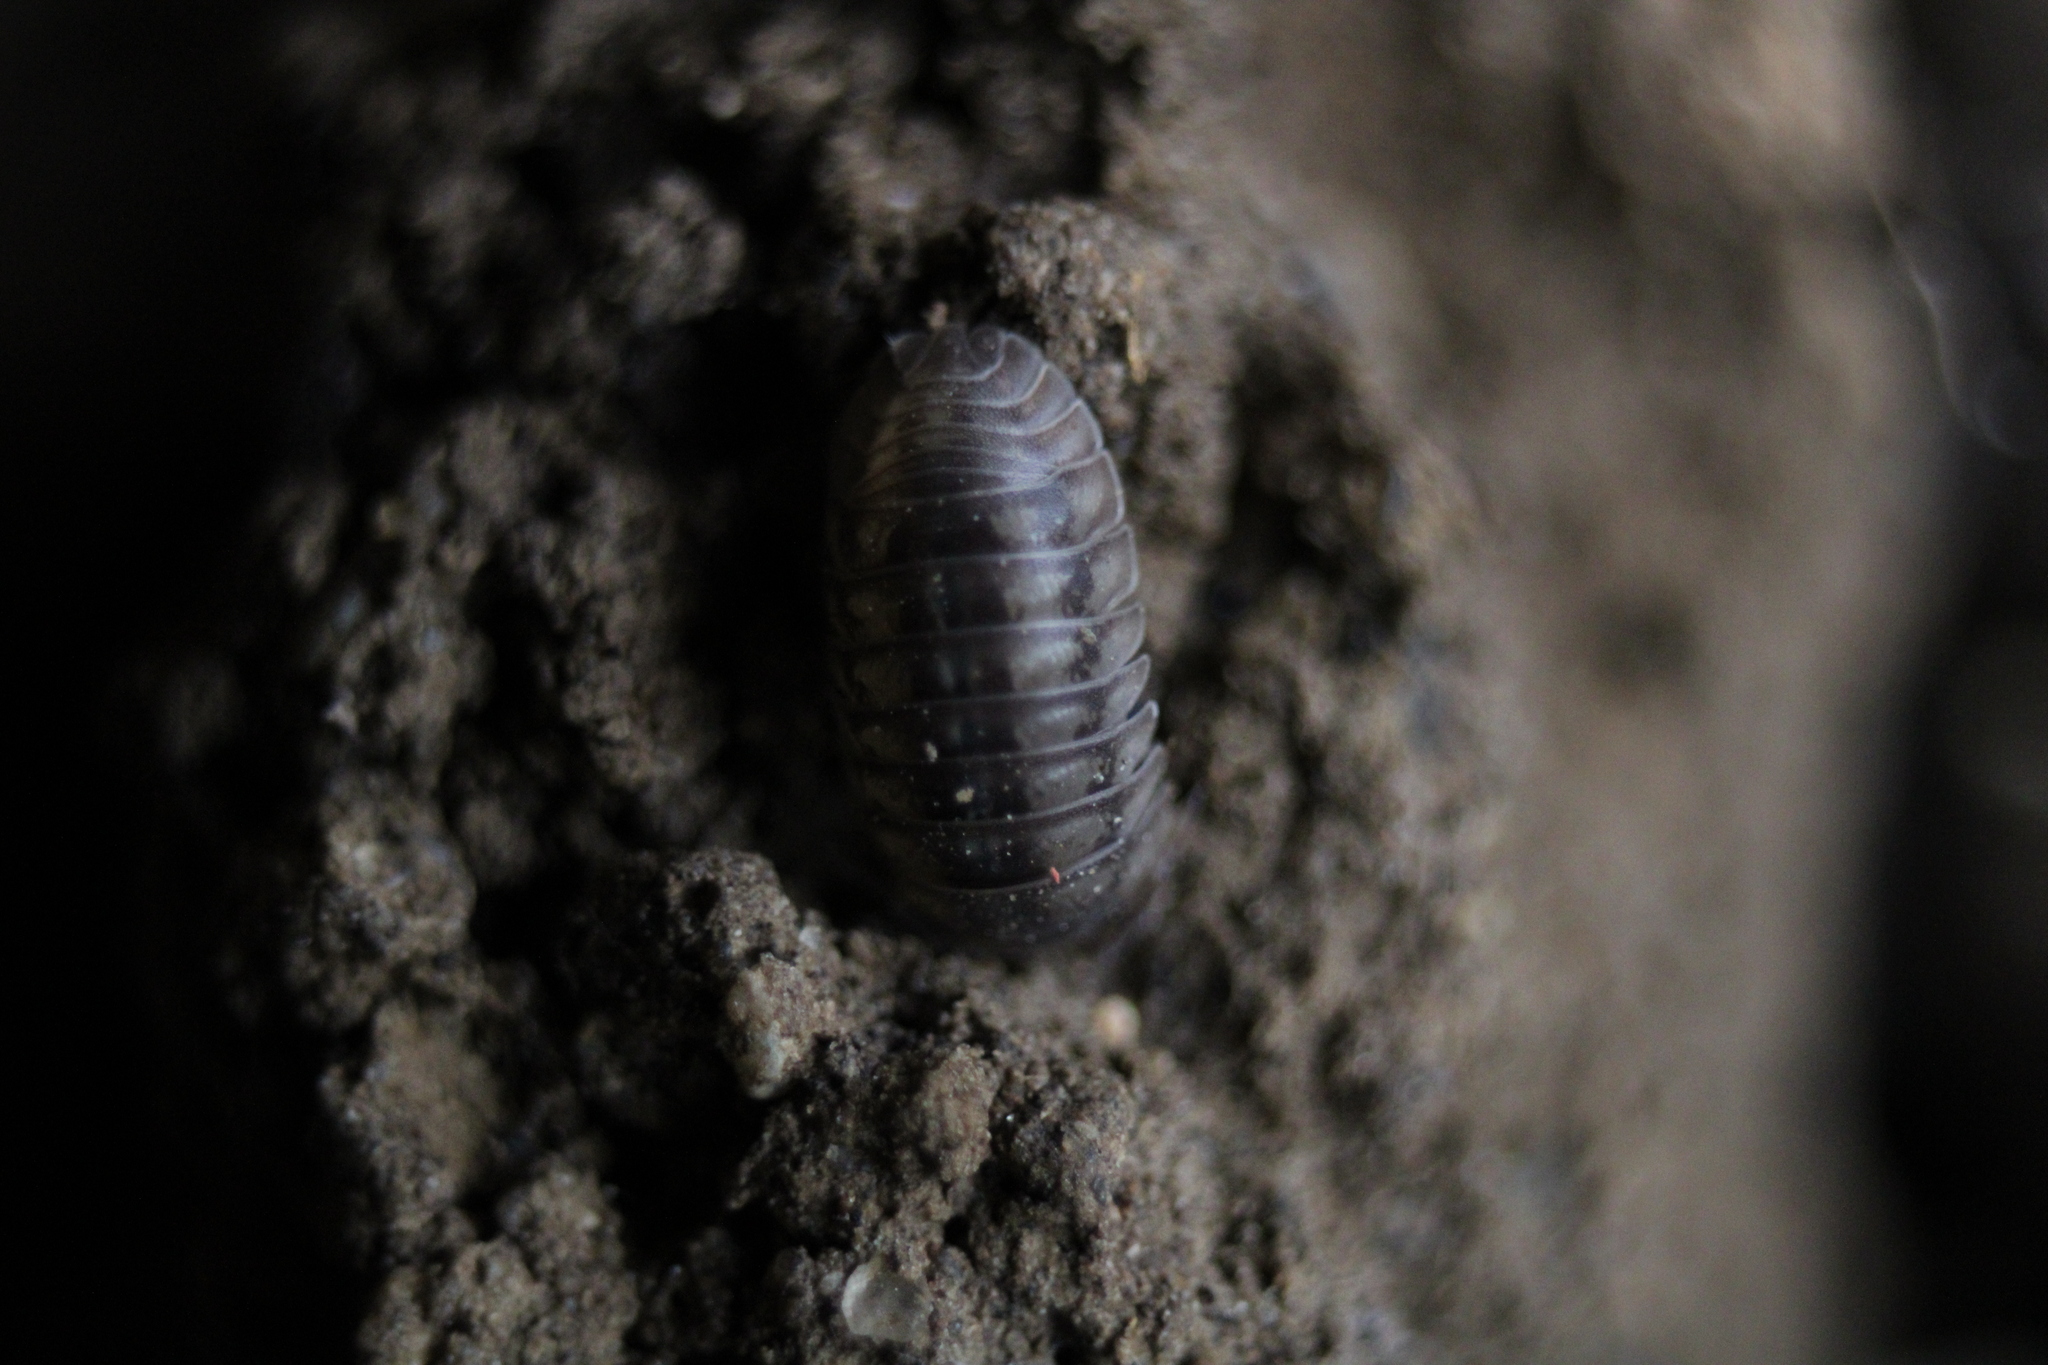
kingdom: Animalia
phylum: Arthropoda
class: Malacostraca
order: Isopoda
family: Armadillidiidae
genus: Armadillidium
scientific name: Armadillidium nasatum
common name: Isopod
